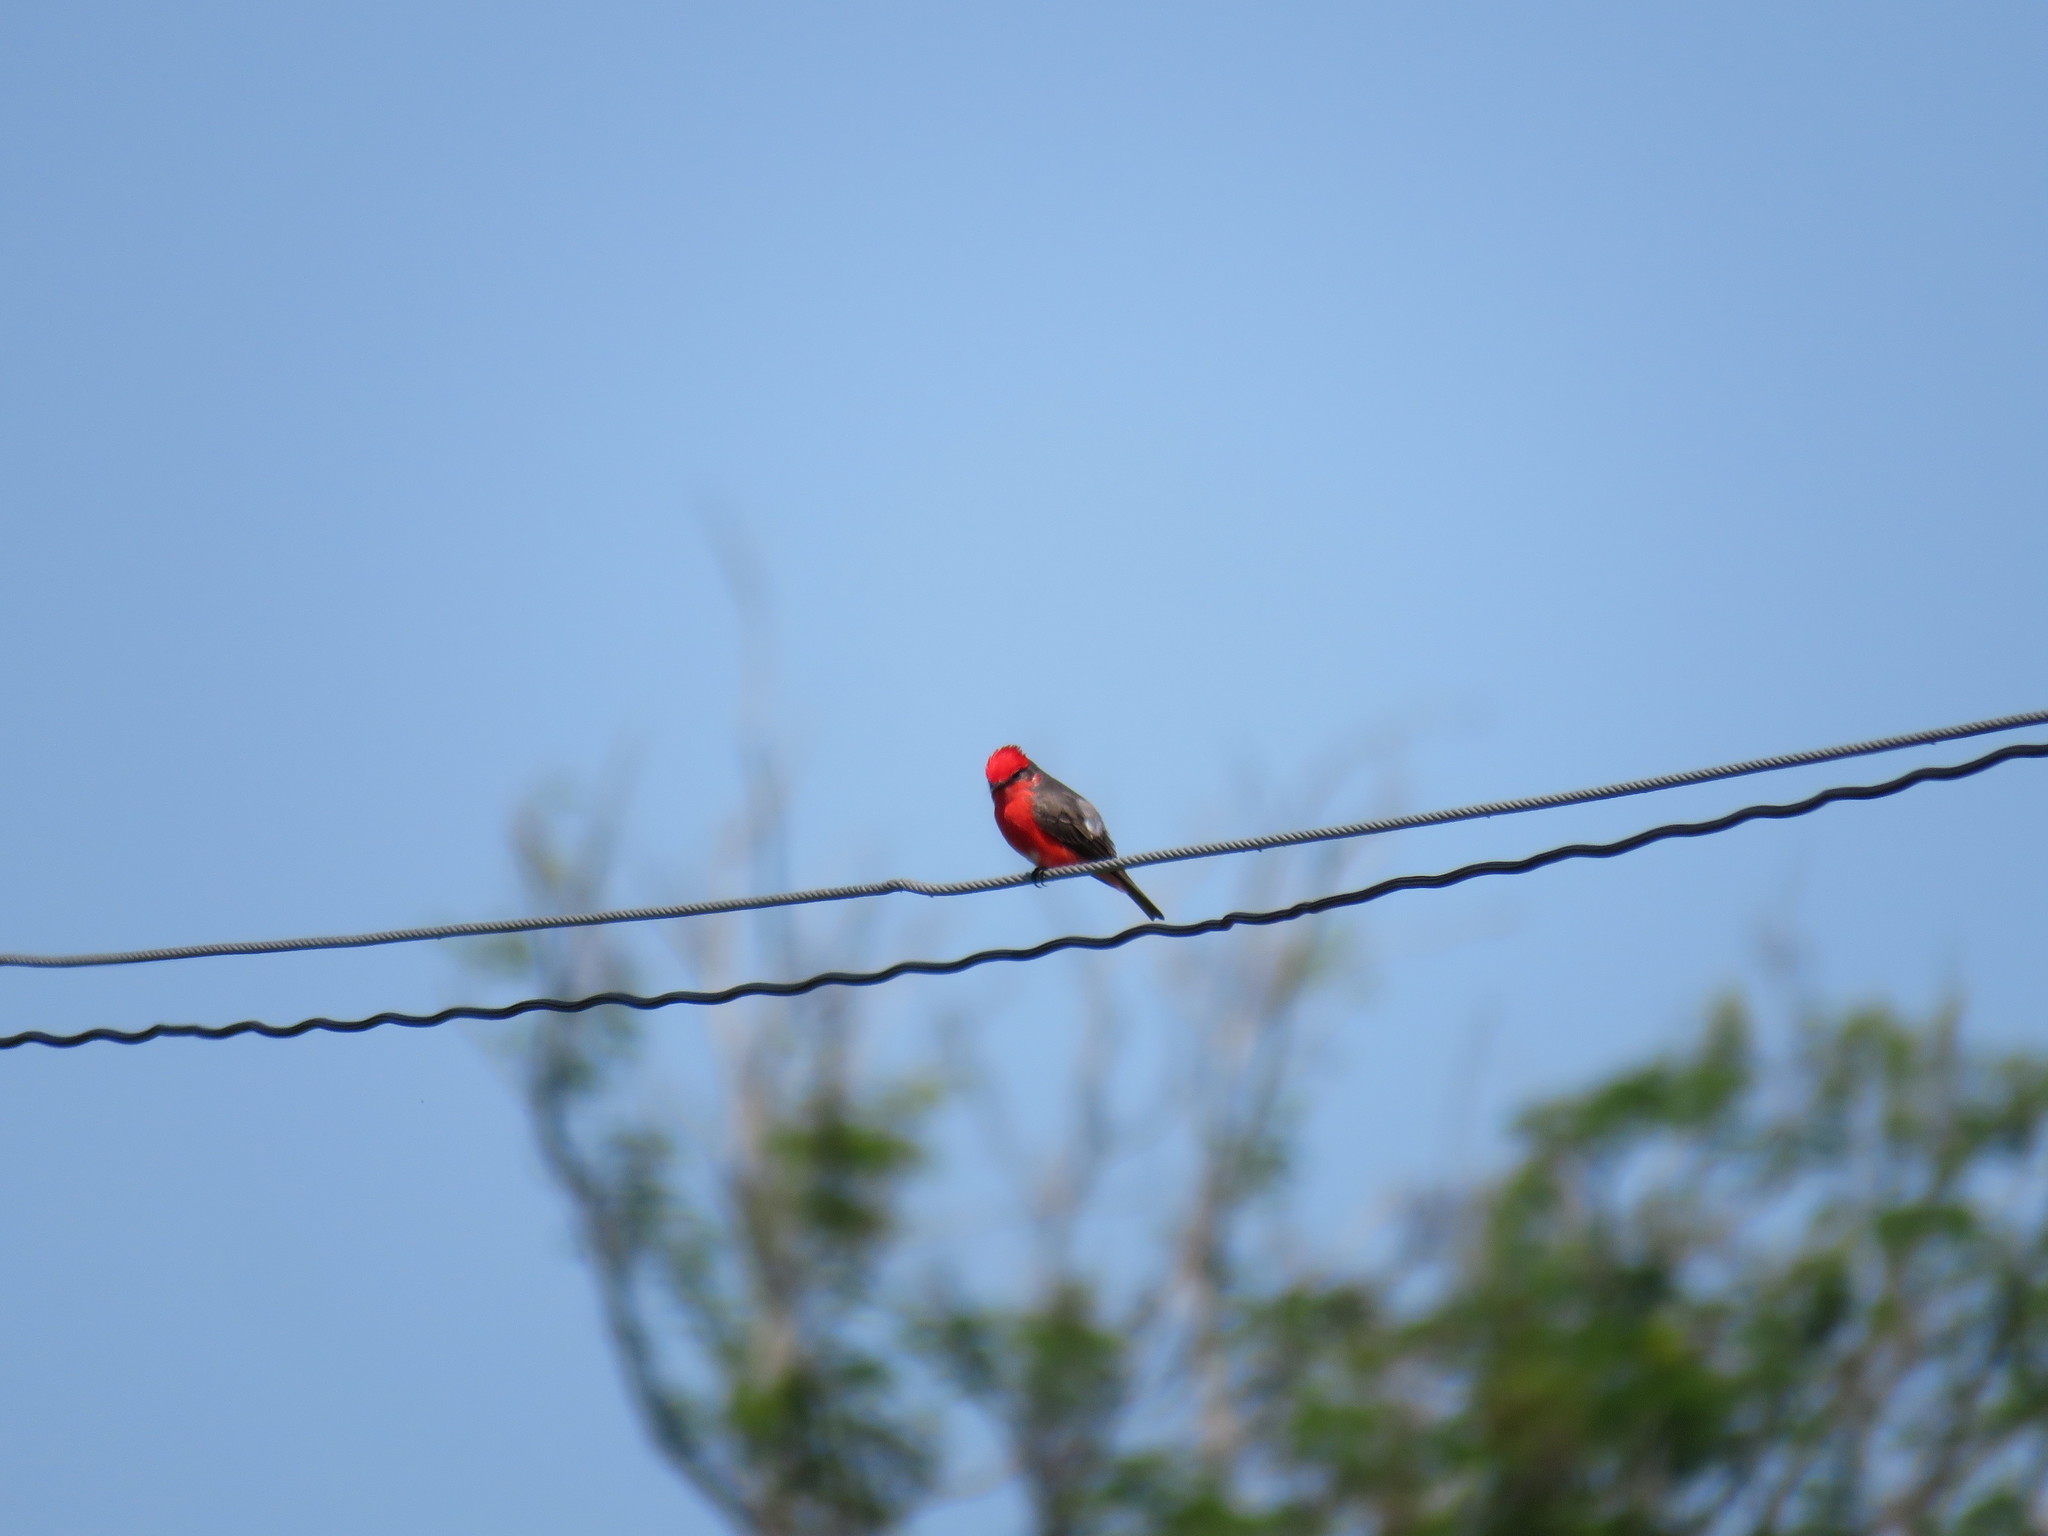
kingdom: Animalia
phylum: Chordata
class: Aves
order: Passeriformes
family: Tyrannidae
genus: Pyrocephalus
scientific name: Pyrocephalus rubinus
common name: Vermilion flycatcher
